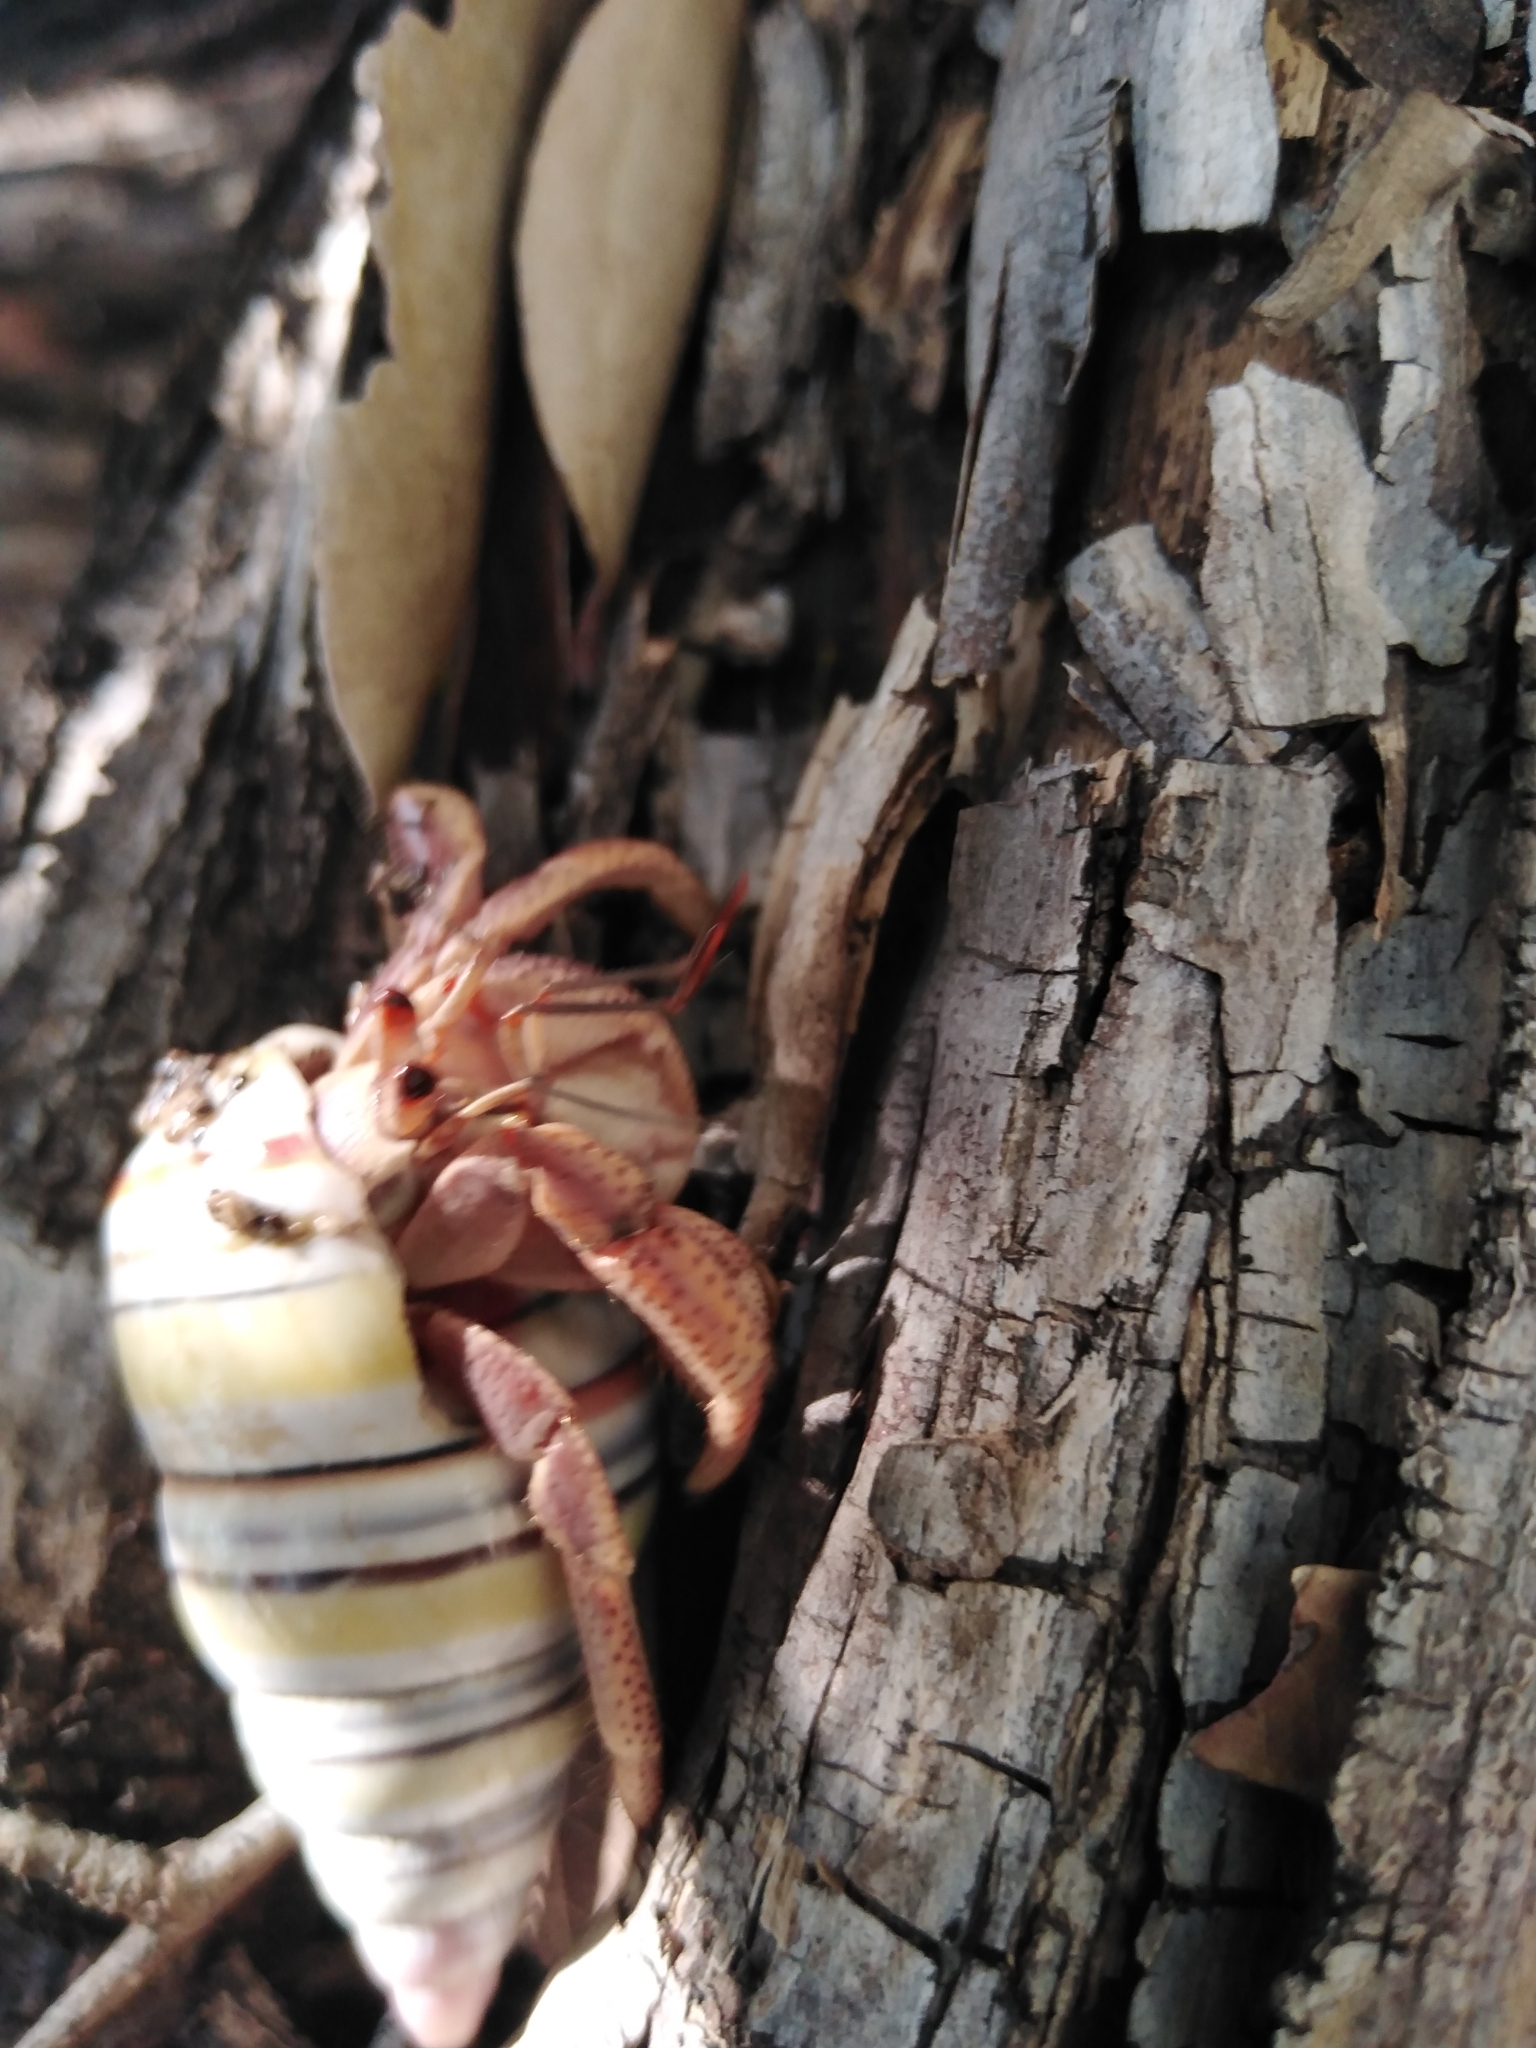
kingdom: Animalia
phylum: Arthropoda
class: Malacostraca
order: Decapoda
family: Coenobitidae
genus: Coenobita
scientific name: Coenobita clypeatus
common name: Caribbean hermit crab
